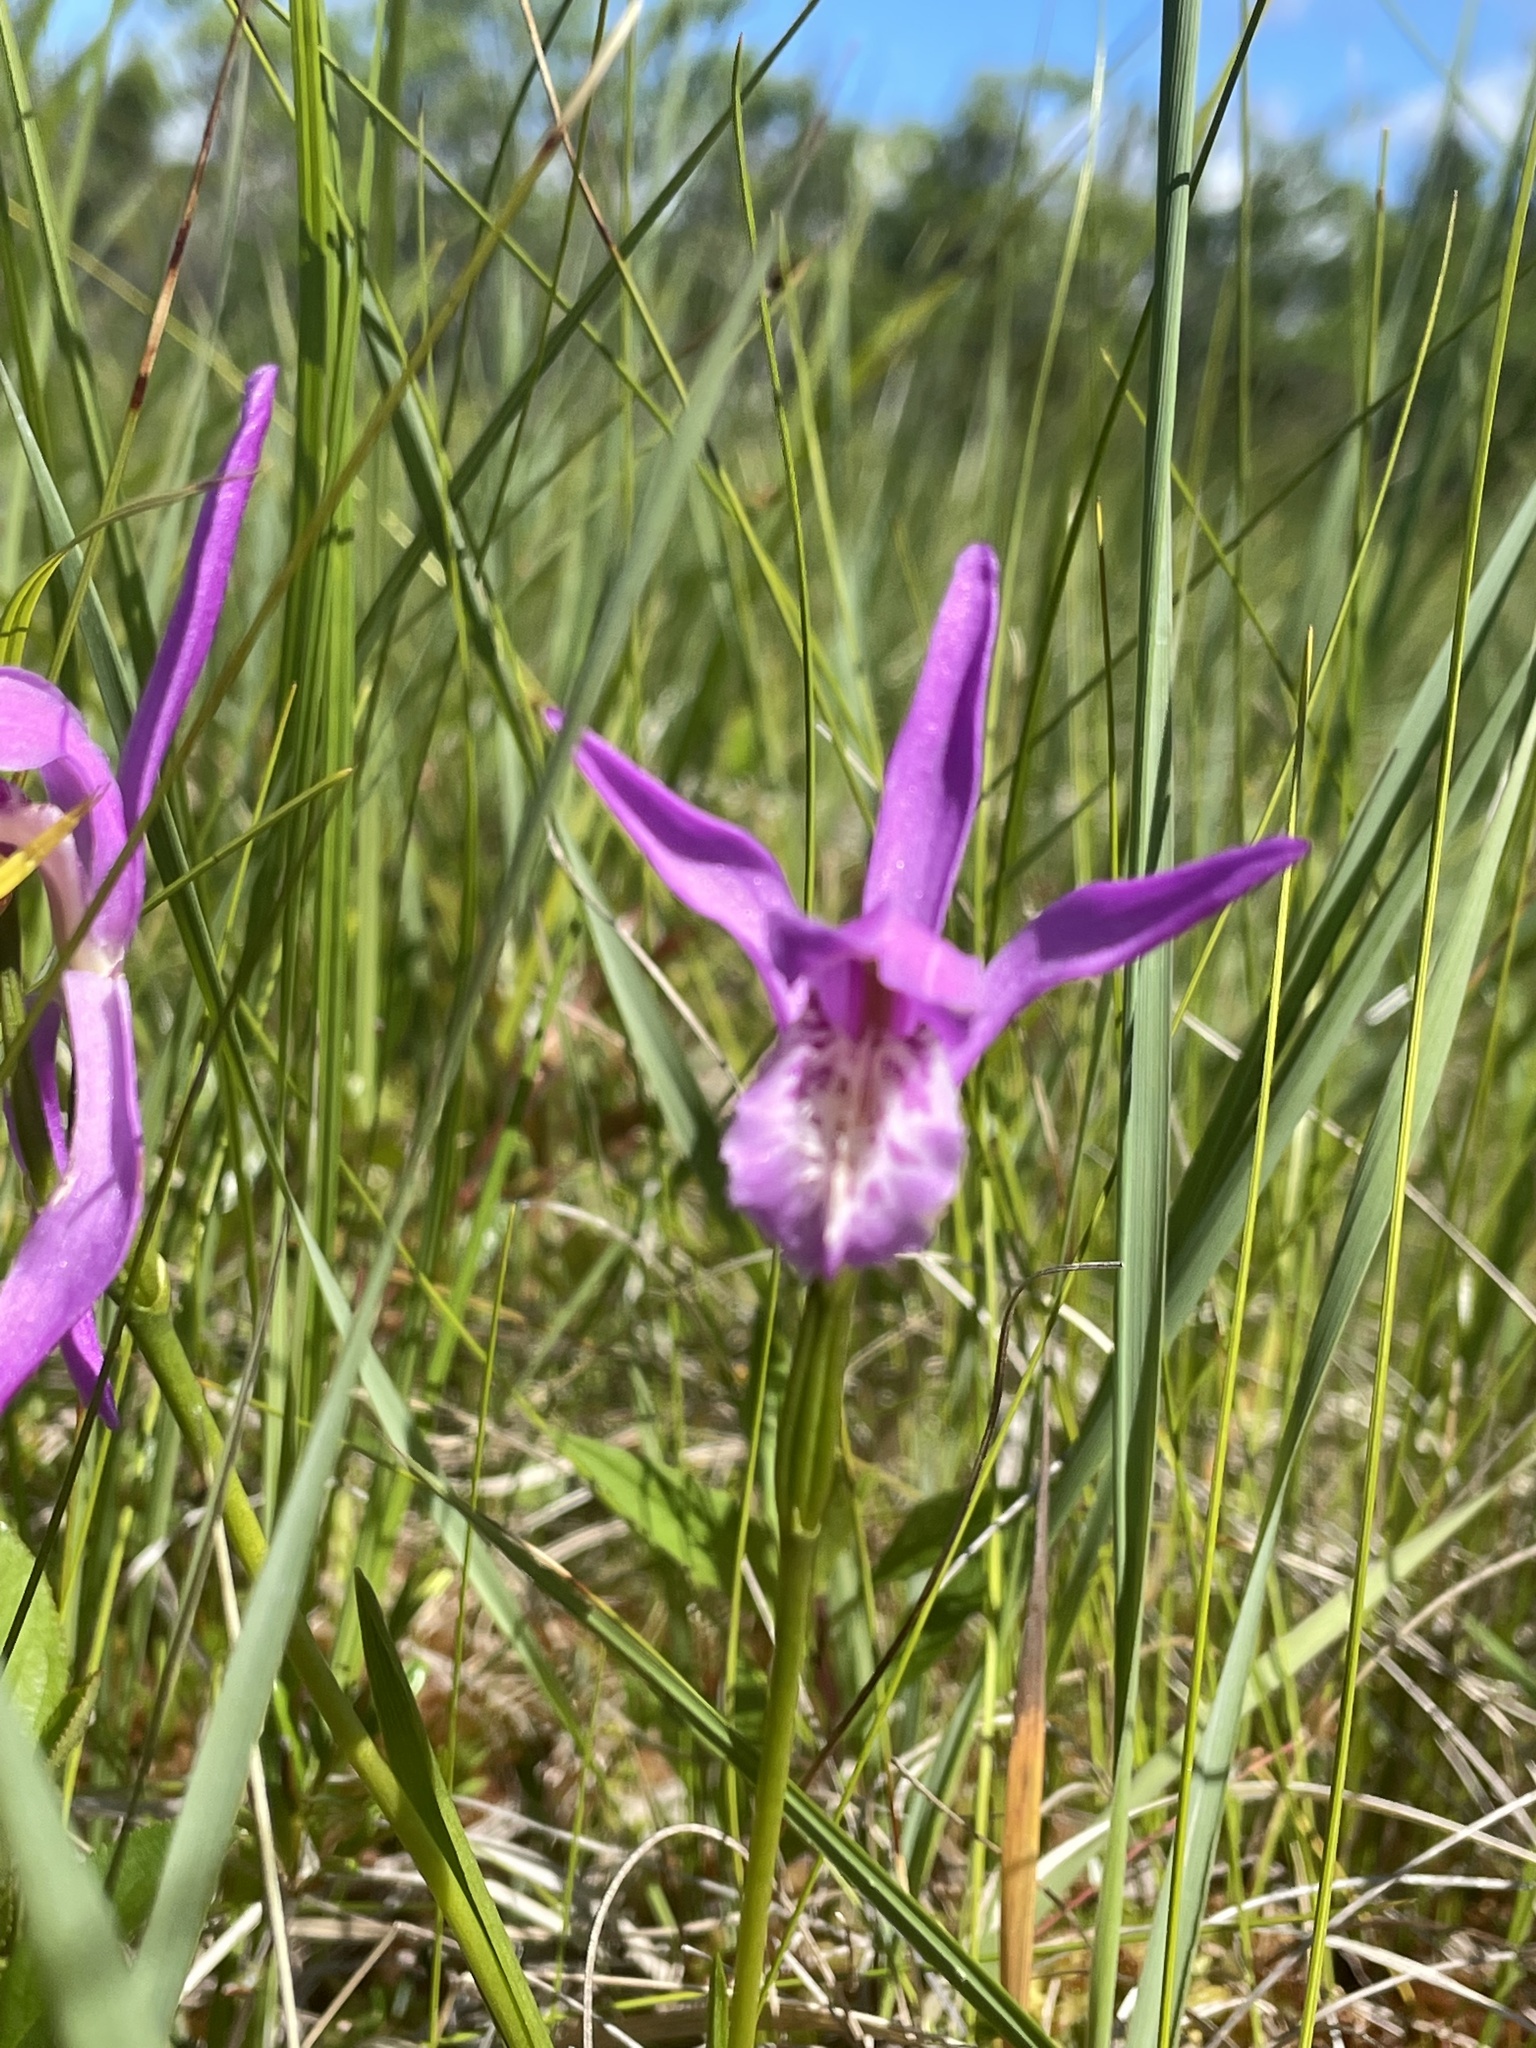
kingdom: Plantae
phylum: Tracheophyta
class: Liliopsida
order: Asparagales
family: Orchidaceae
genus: Arethusa
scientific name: Arethusa bulbosa
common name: Arethusa
